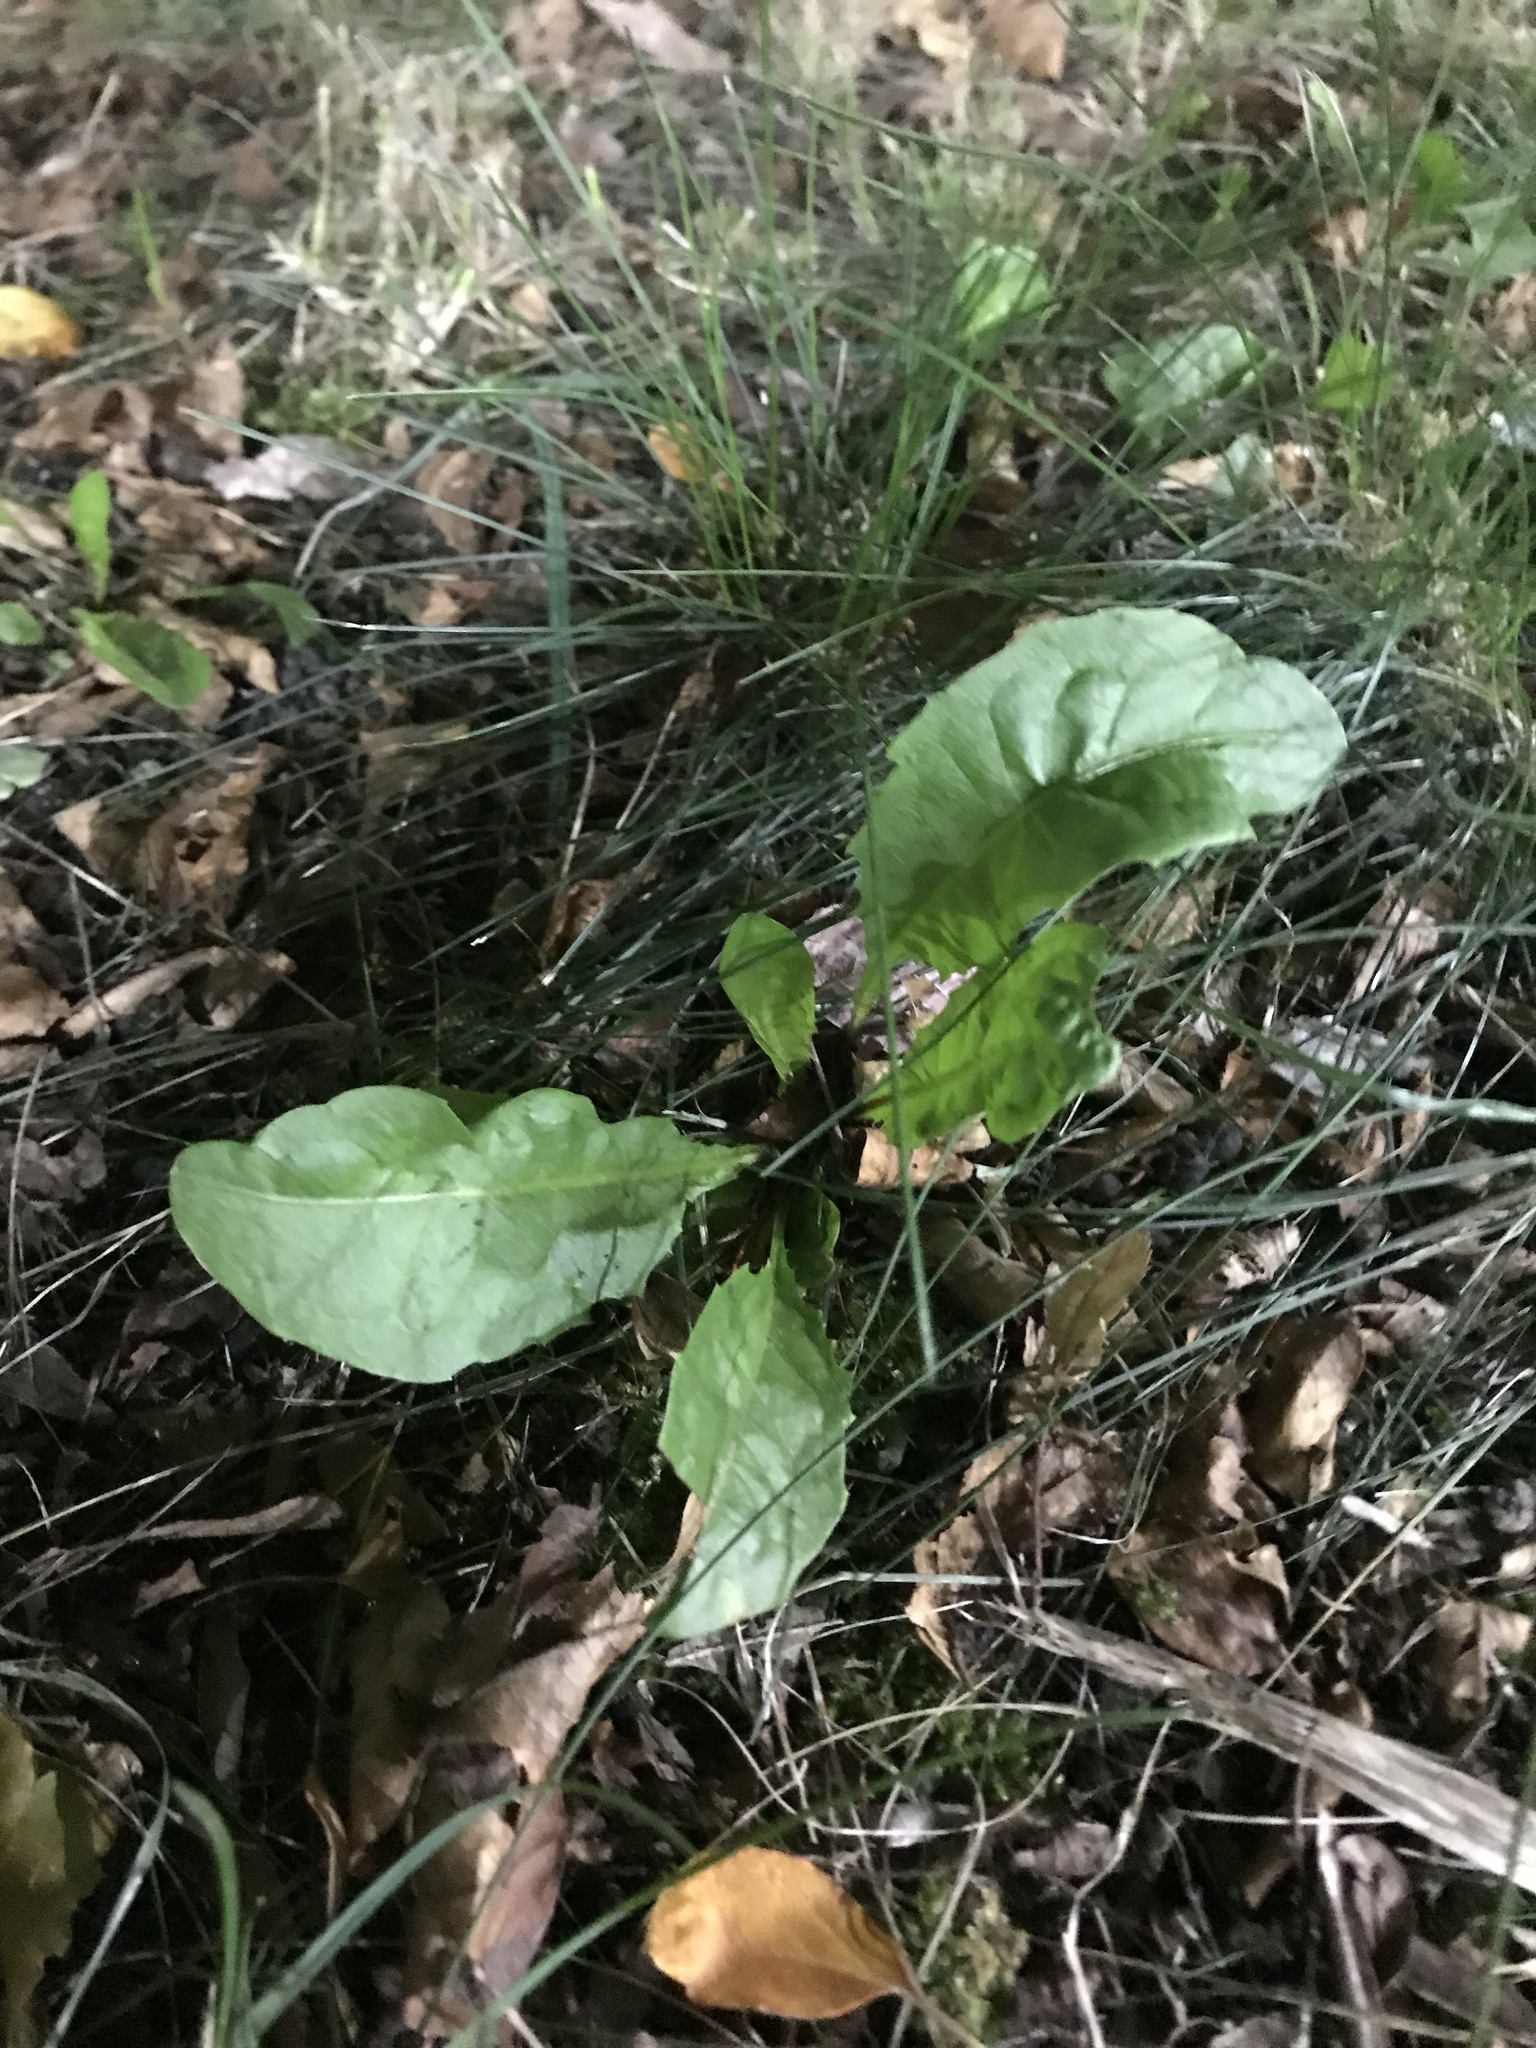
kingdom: Plantae
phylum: Tracheophyta
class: Magnoliopsida
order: Asterales
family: Asteraceae
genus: Taraxacum
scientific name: Taraxacum officinale
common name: Common dandelion
